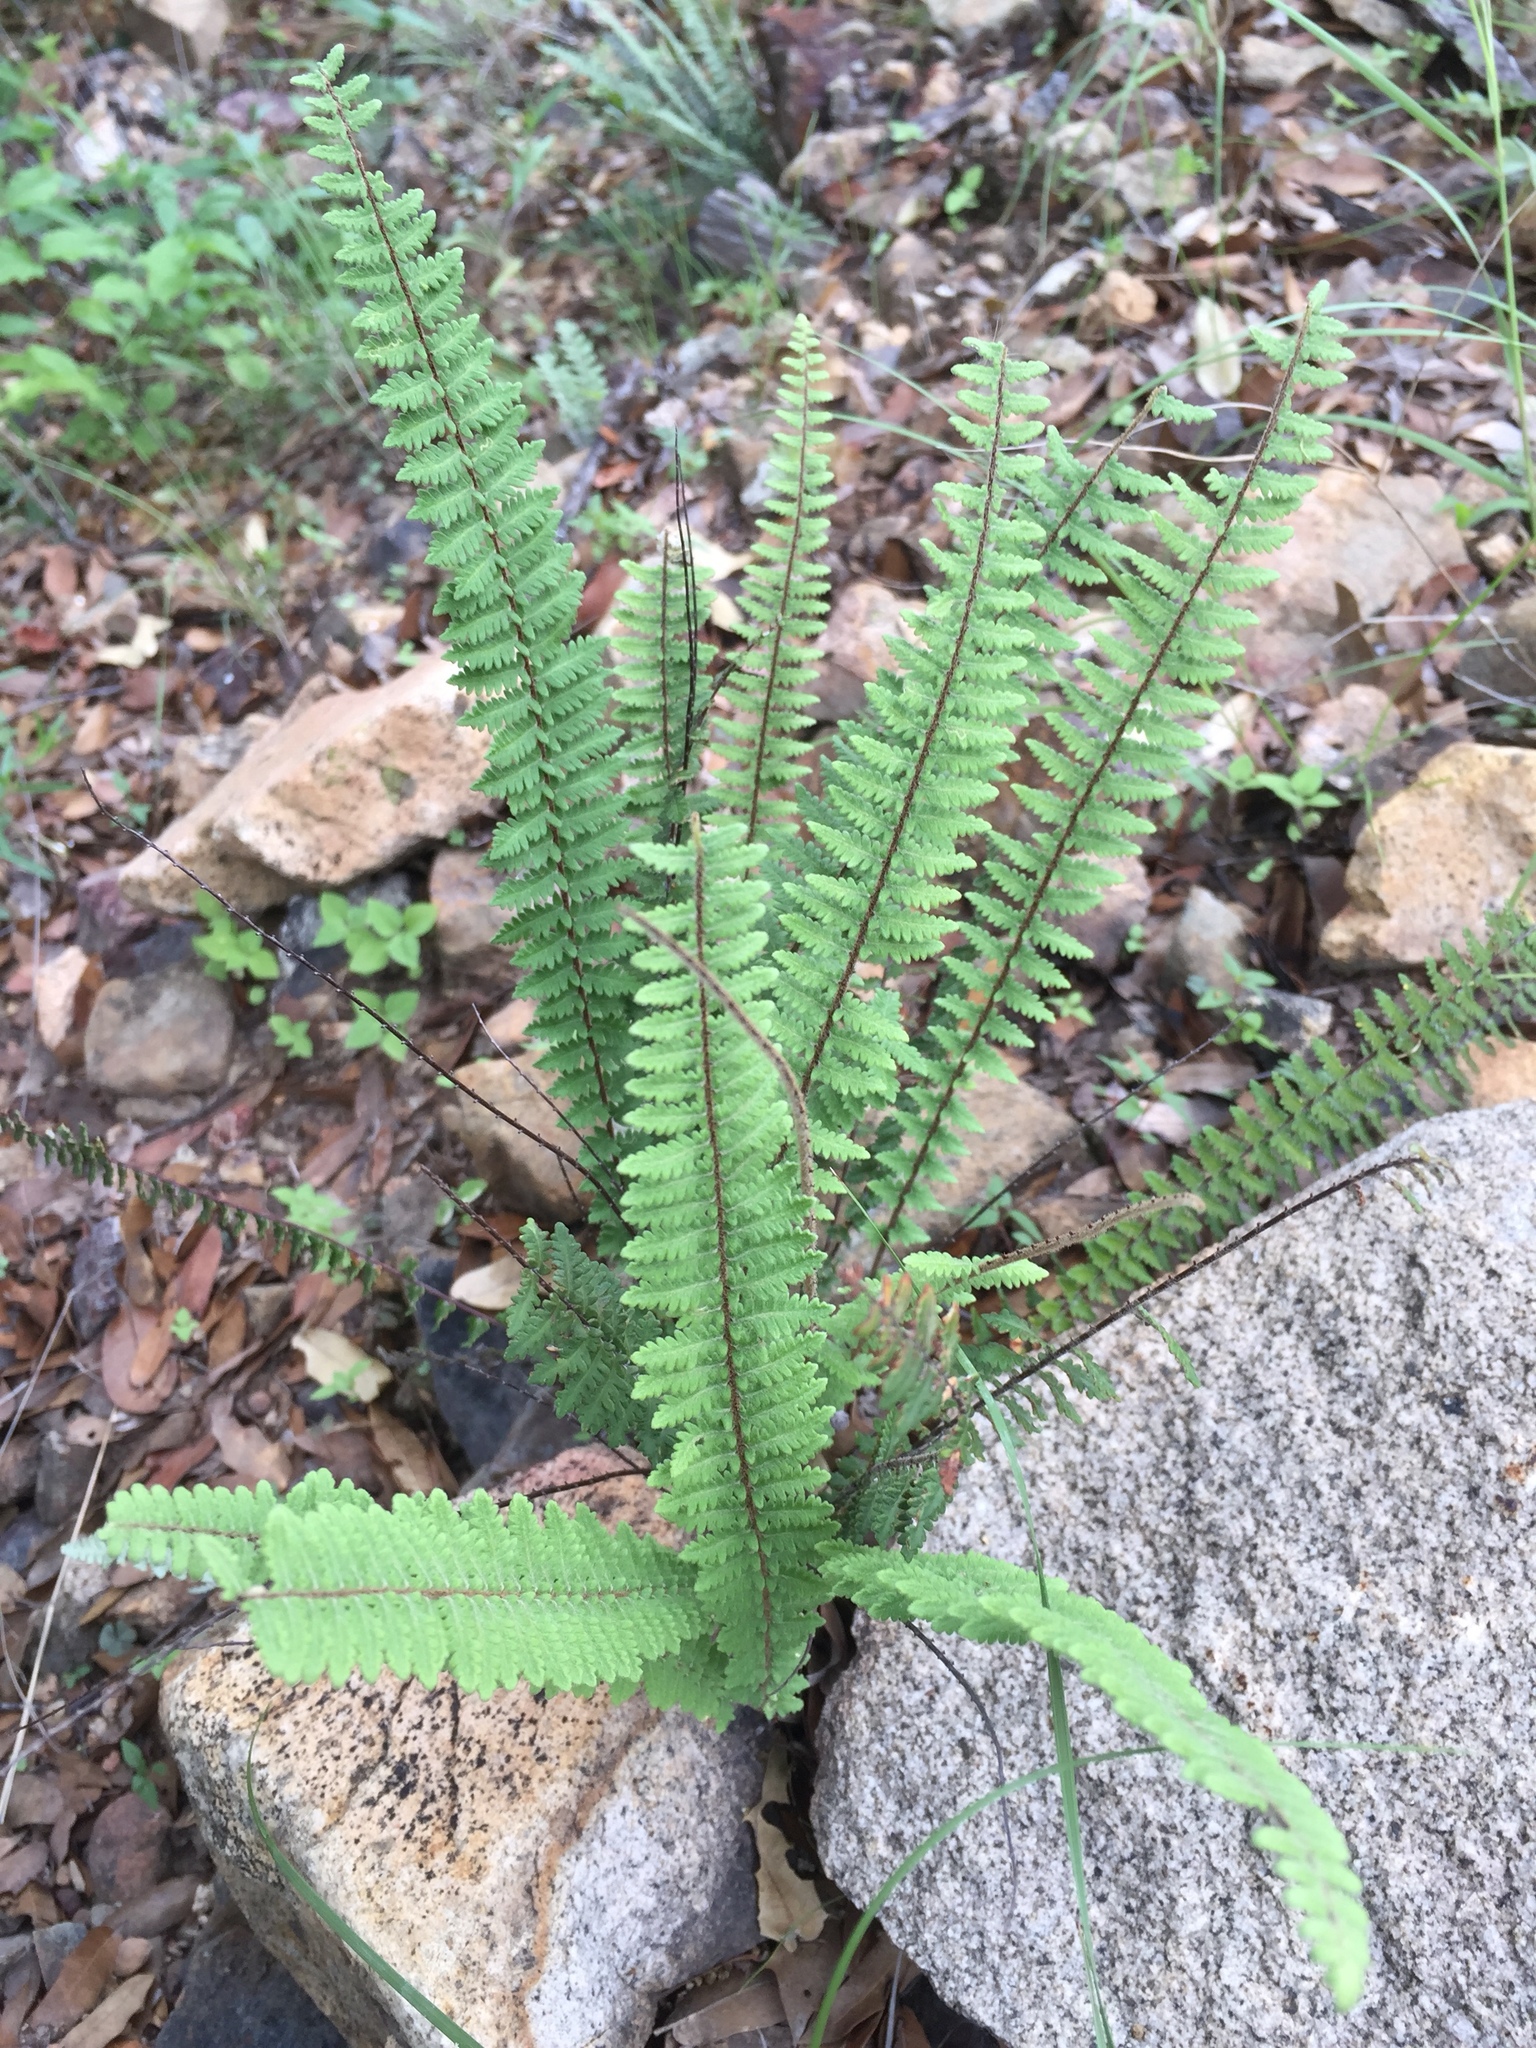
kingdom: Plantae
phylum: Tracheophyta
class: Polypodiopsida
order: Polypodiales
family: Pteridaceae
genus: Myriopteris
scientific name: Myriopteris aurea
